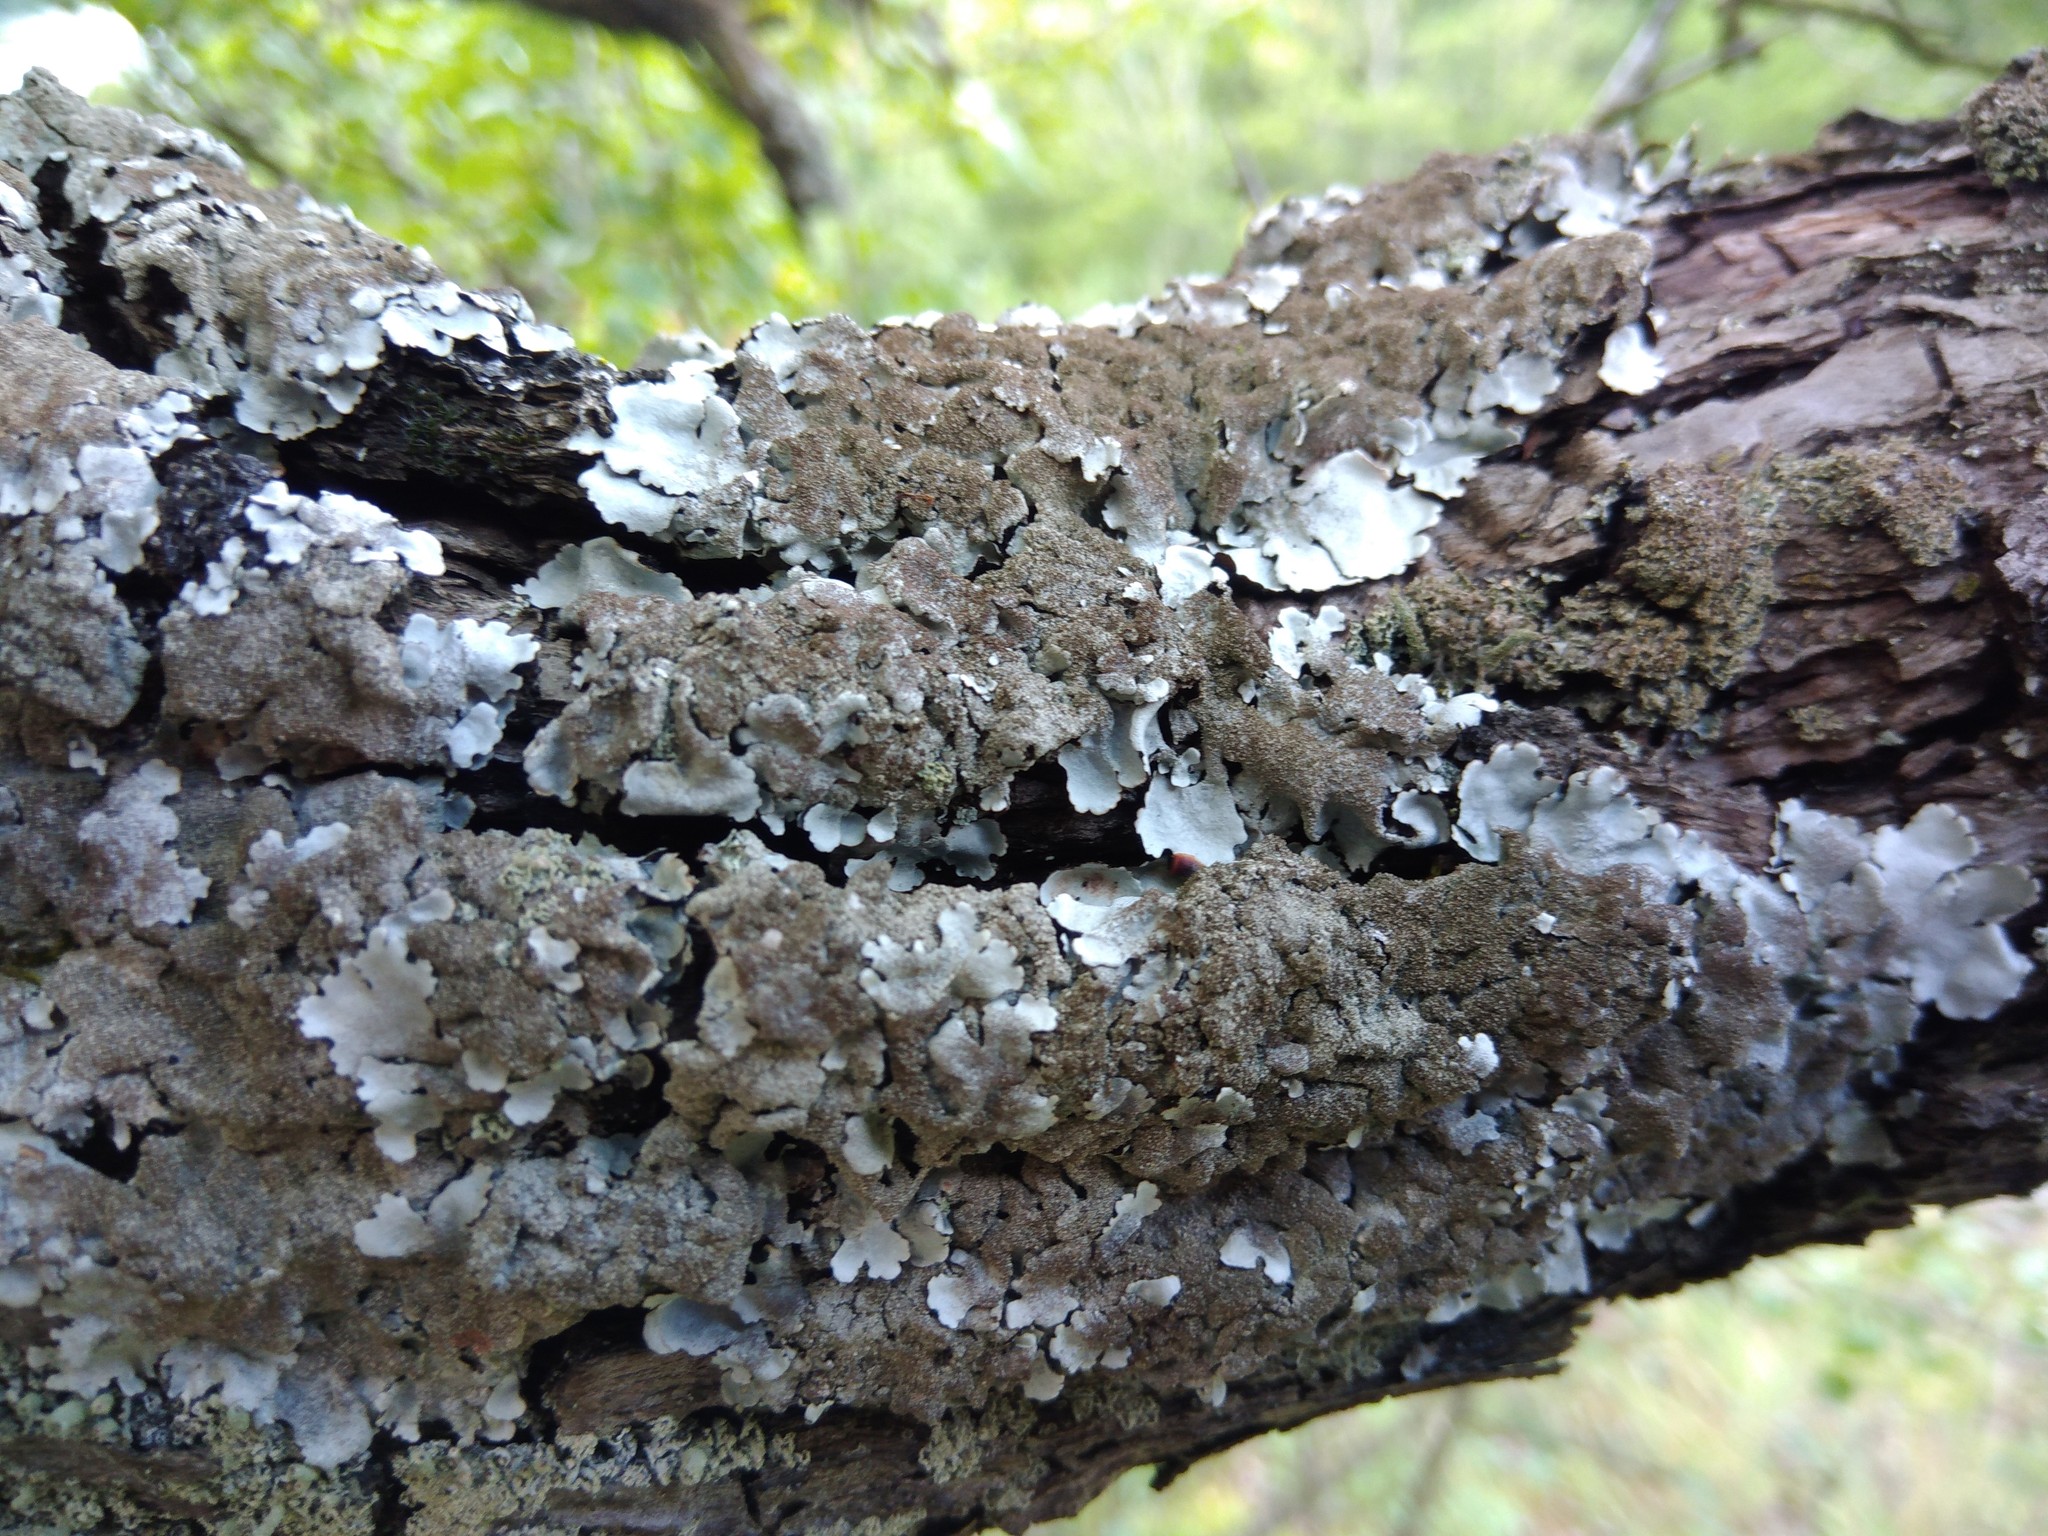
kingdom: Fungi
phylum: Ascomycota
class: Lecanoromycetes
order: Lecanorales
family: Parmeliaceae
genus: Parmelina
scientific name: Parmelina tiliacea
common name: Linden shield lichen
